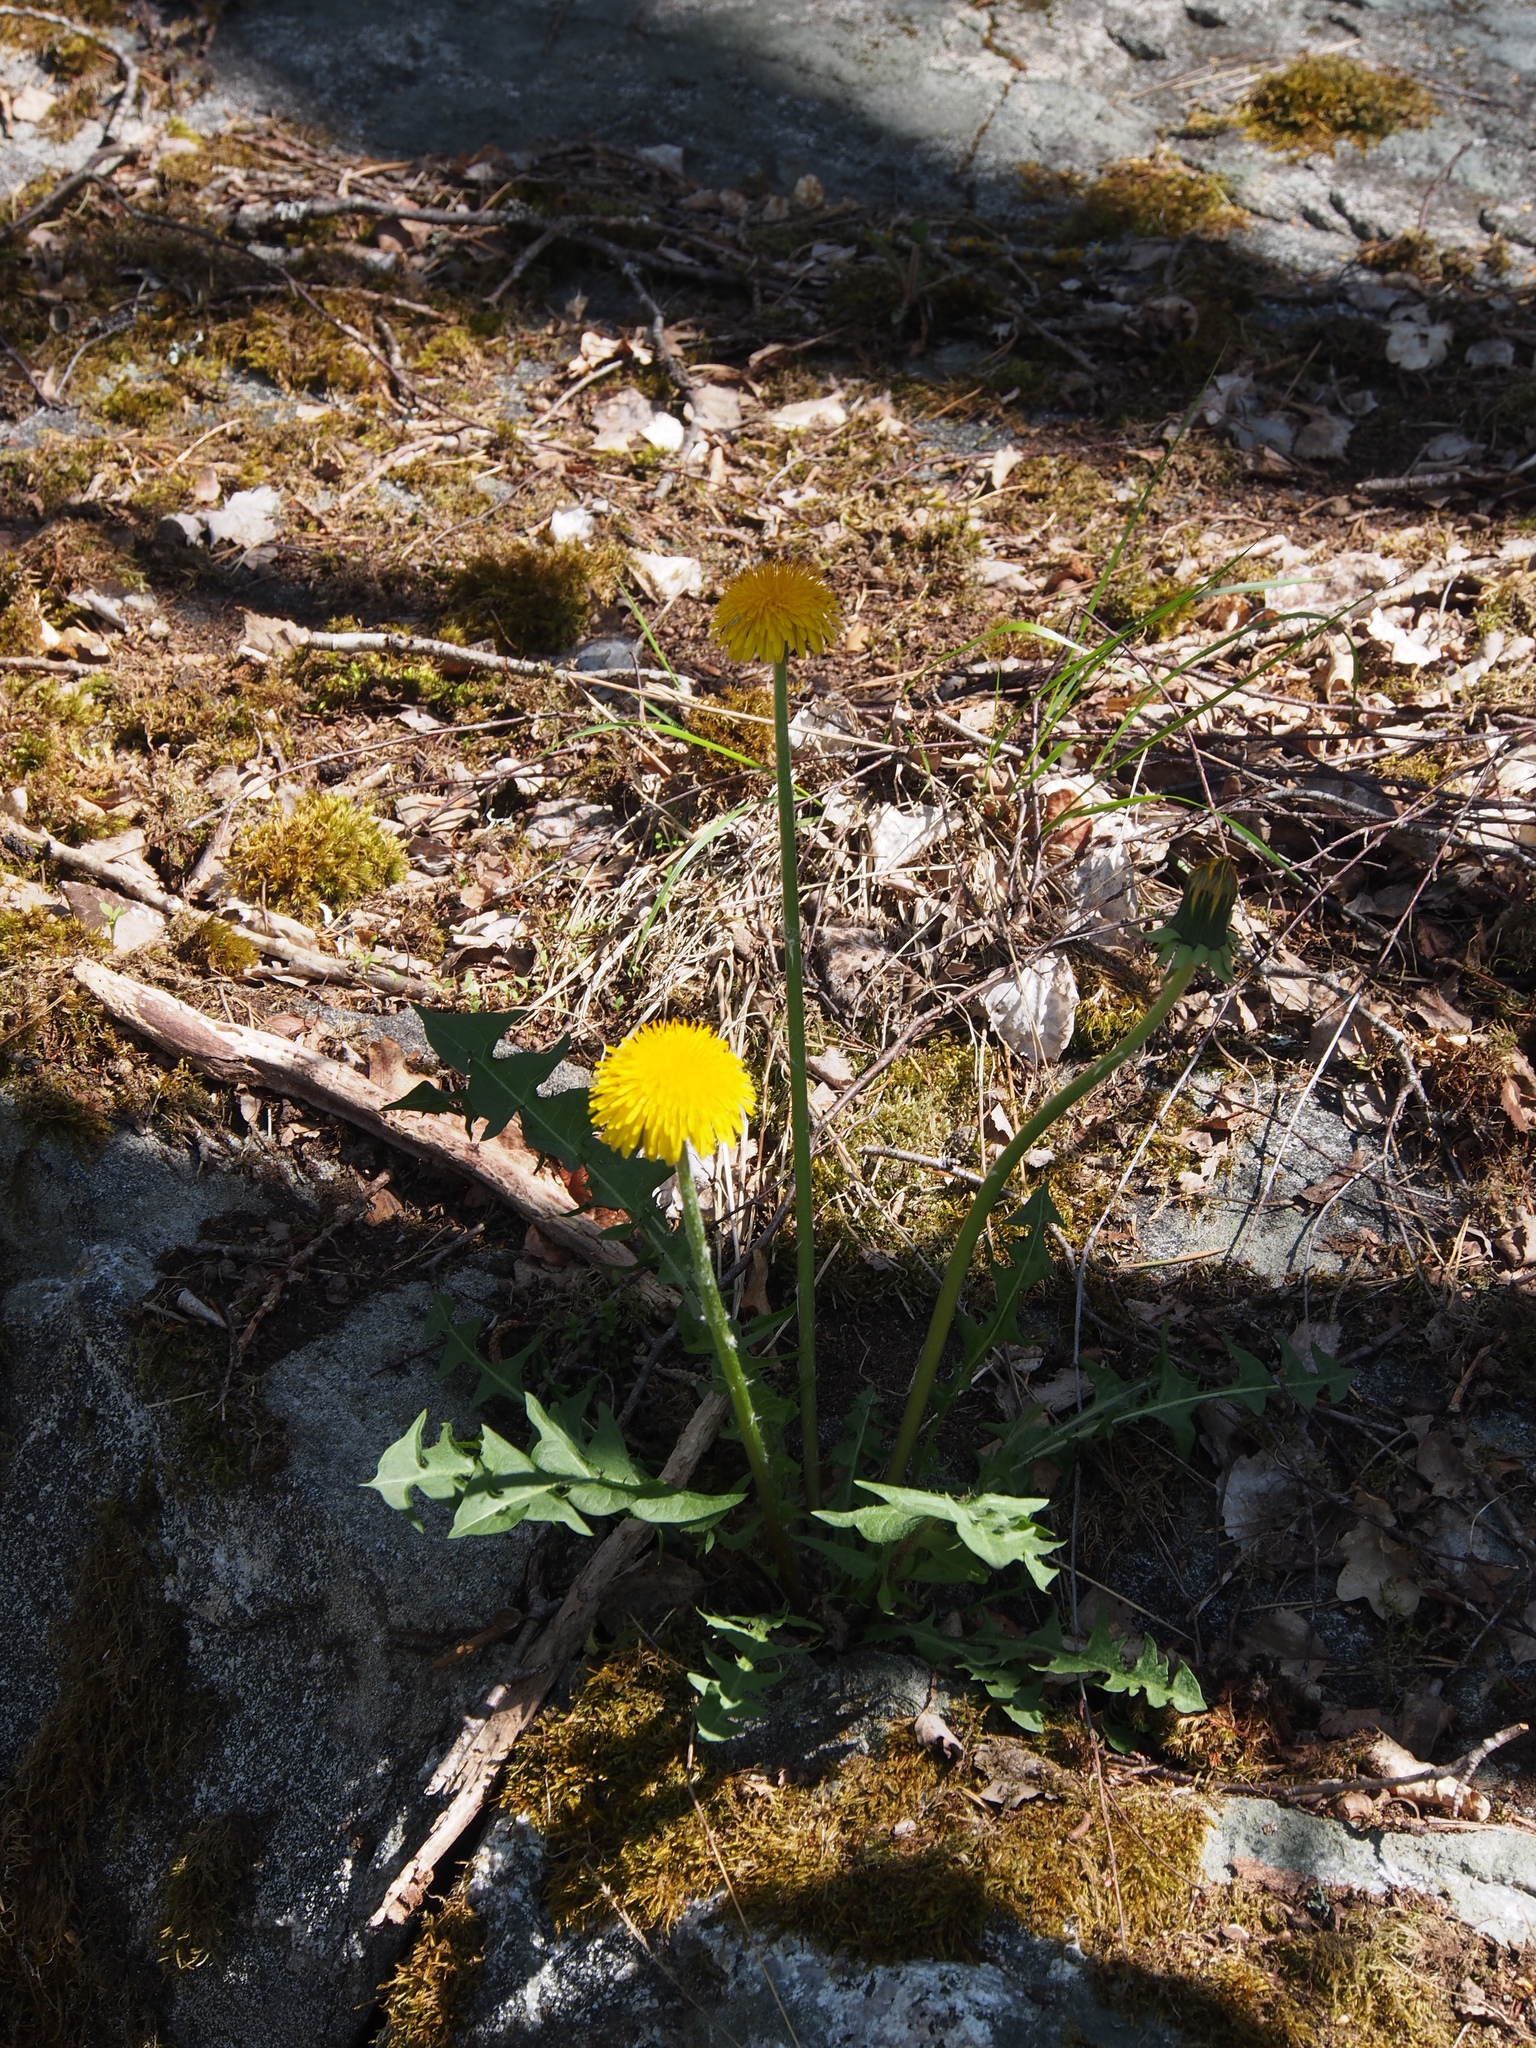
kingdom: Plantae
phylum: Tracheophyta
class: Magnoliopsida
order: Asterales
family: Asteraceae
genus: Taraxacum
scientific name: Taraxacum officinale
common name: Common dandelion
